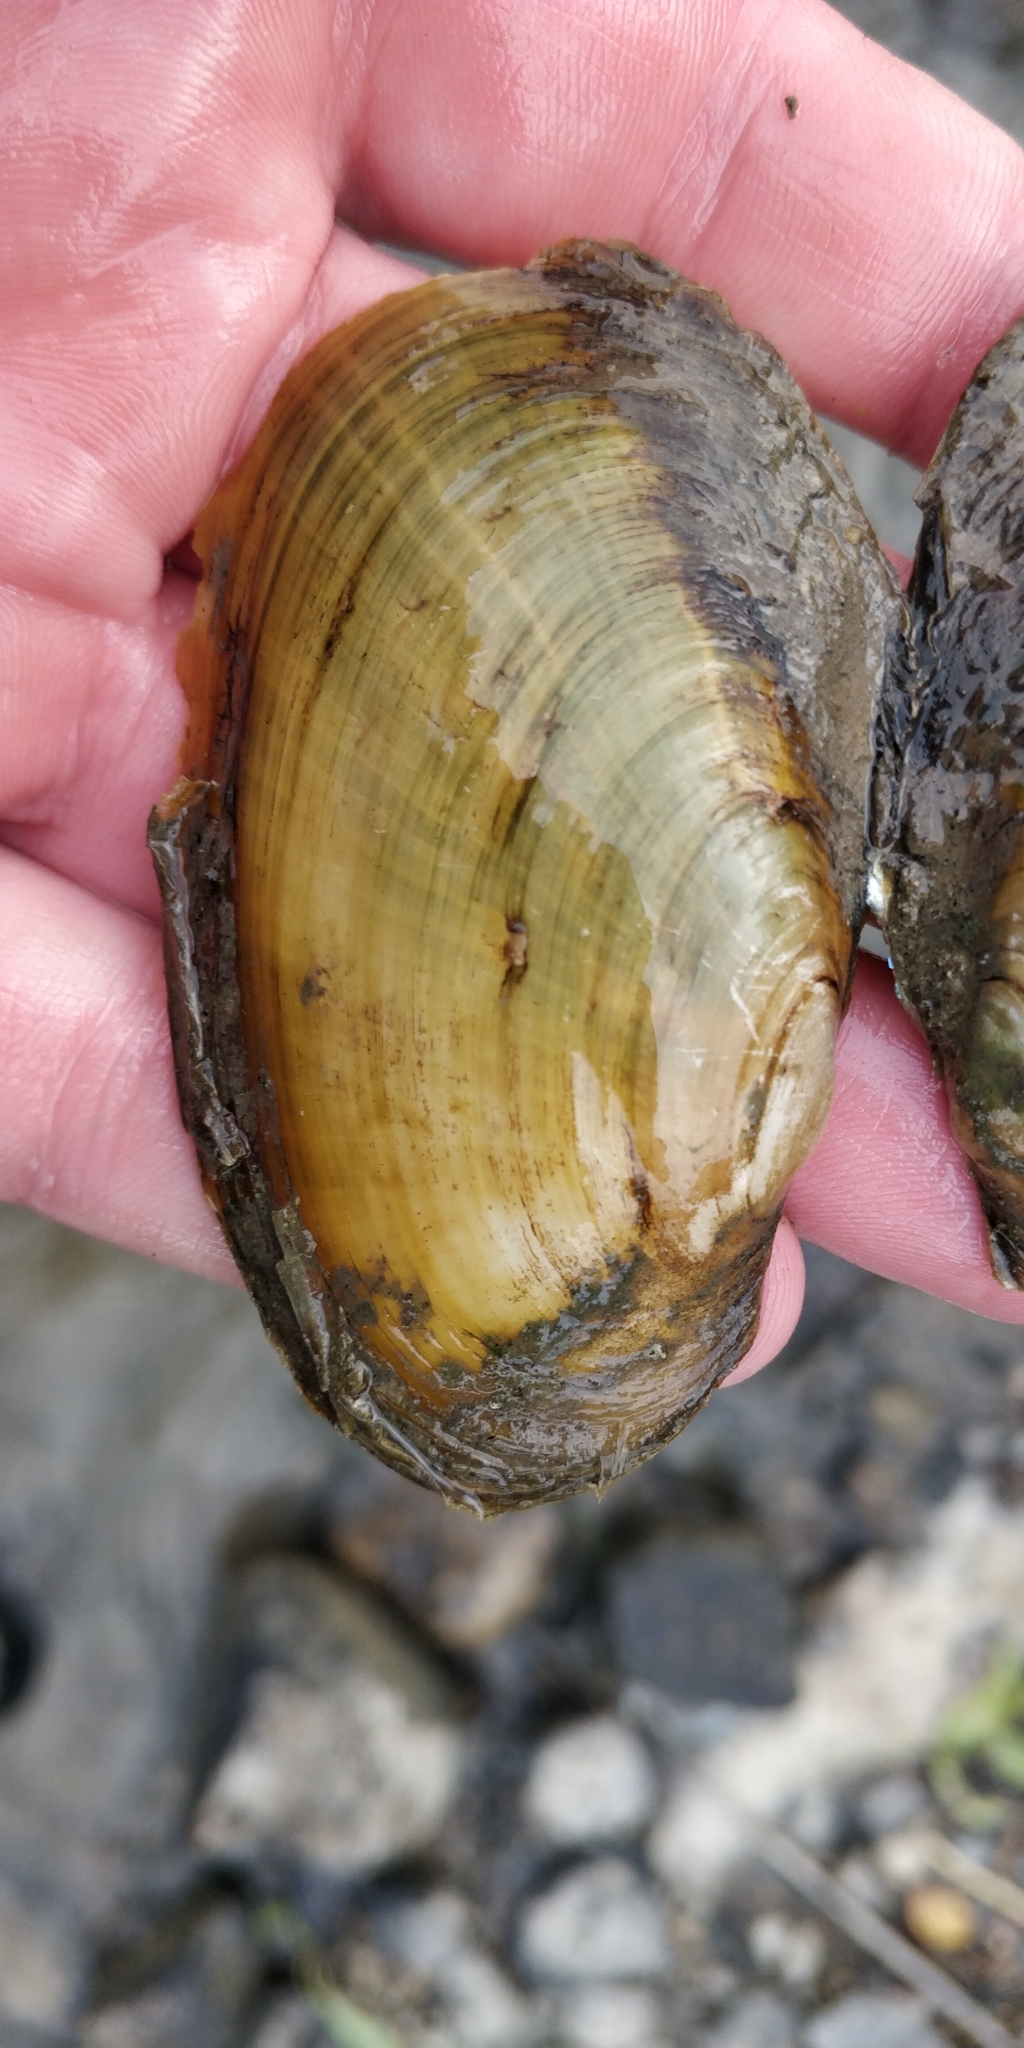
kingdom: Animalia
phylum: Mollusca
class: Bivalvia
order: Unionida
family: Unionidae
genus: Potamilus
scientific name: Potamilus fragilis
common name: Fragile papershell
